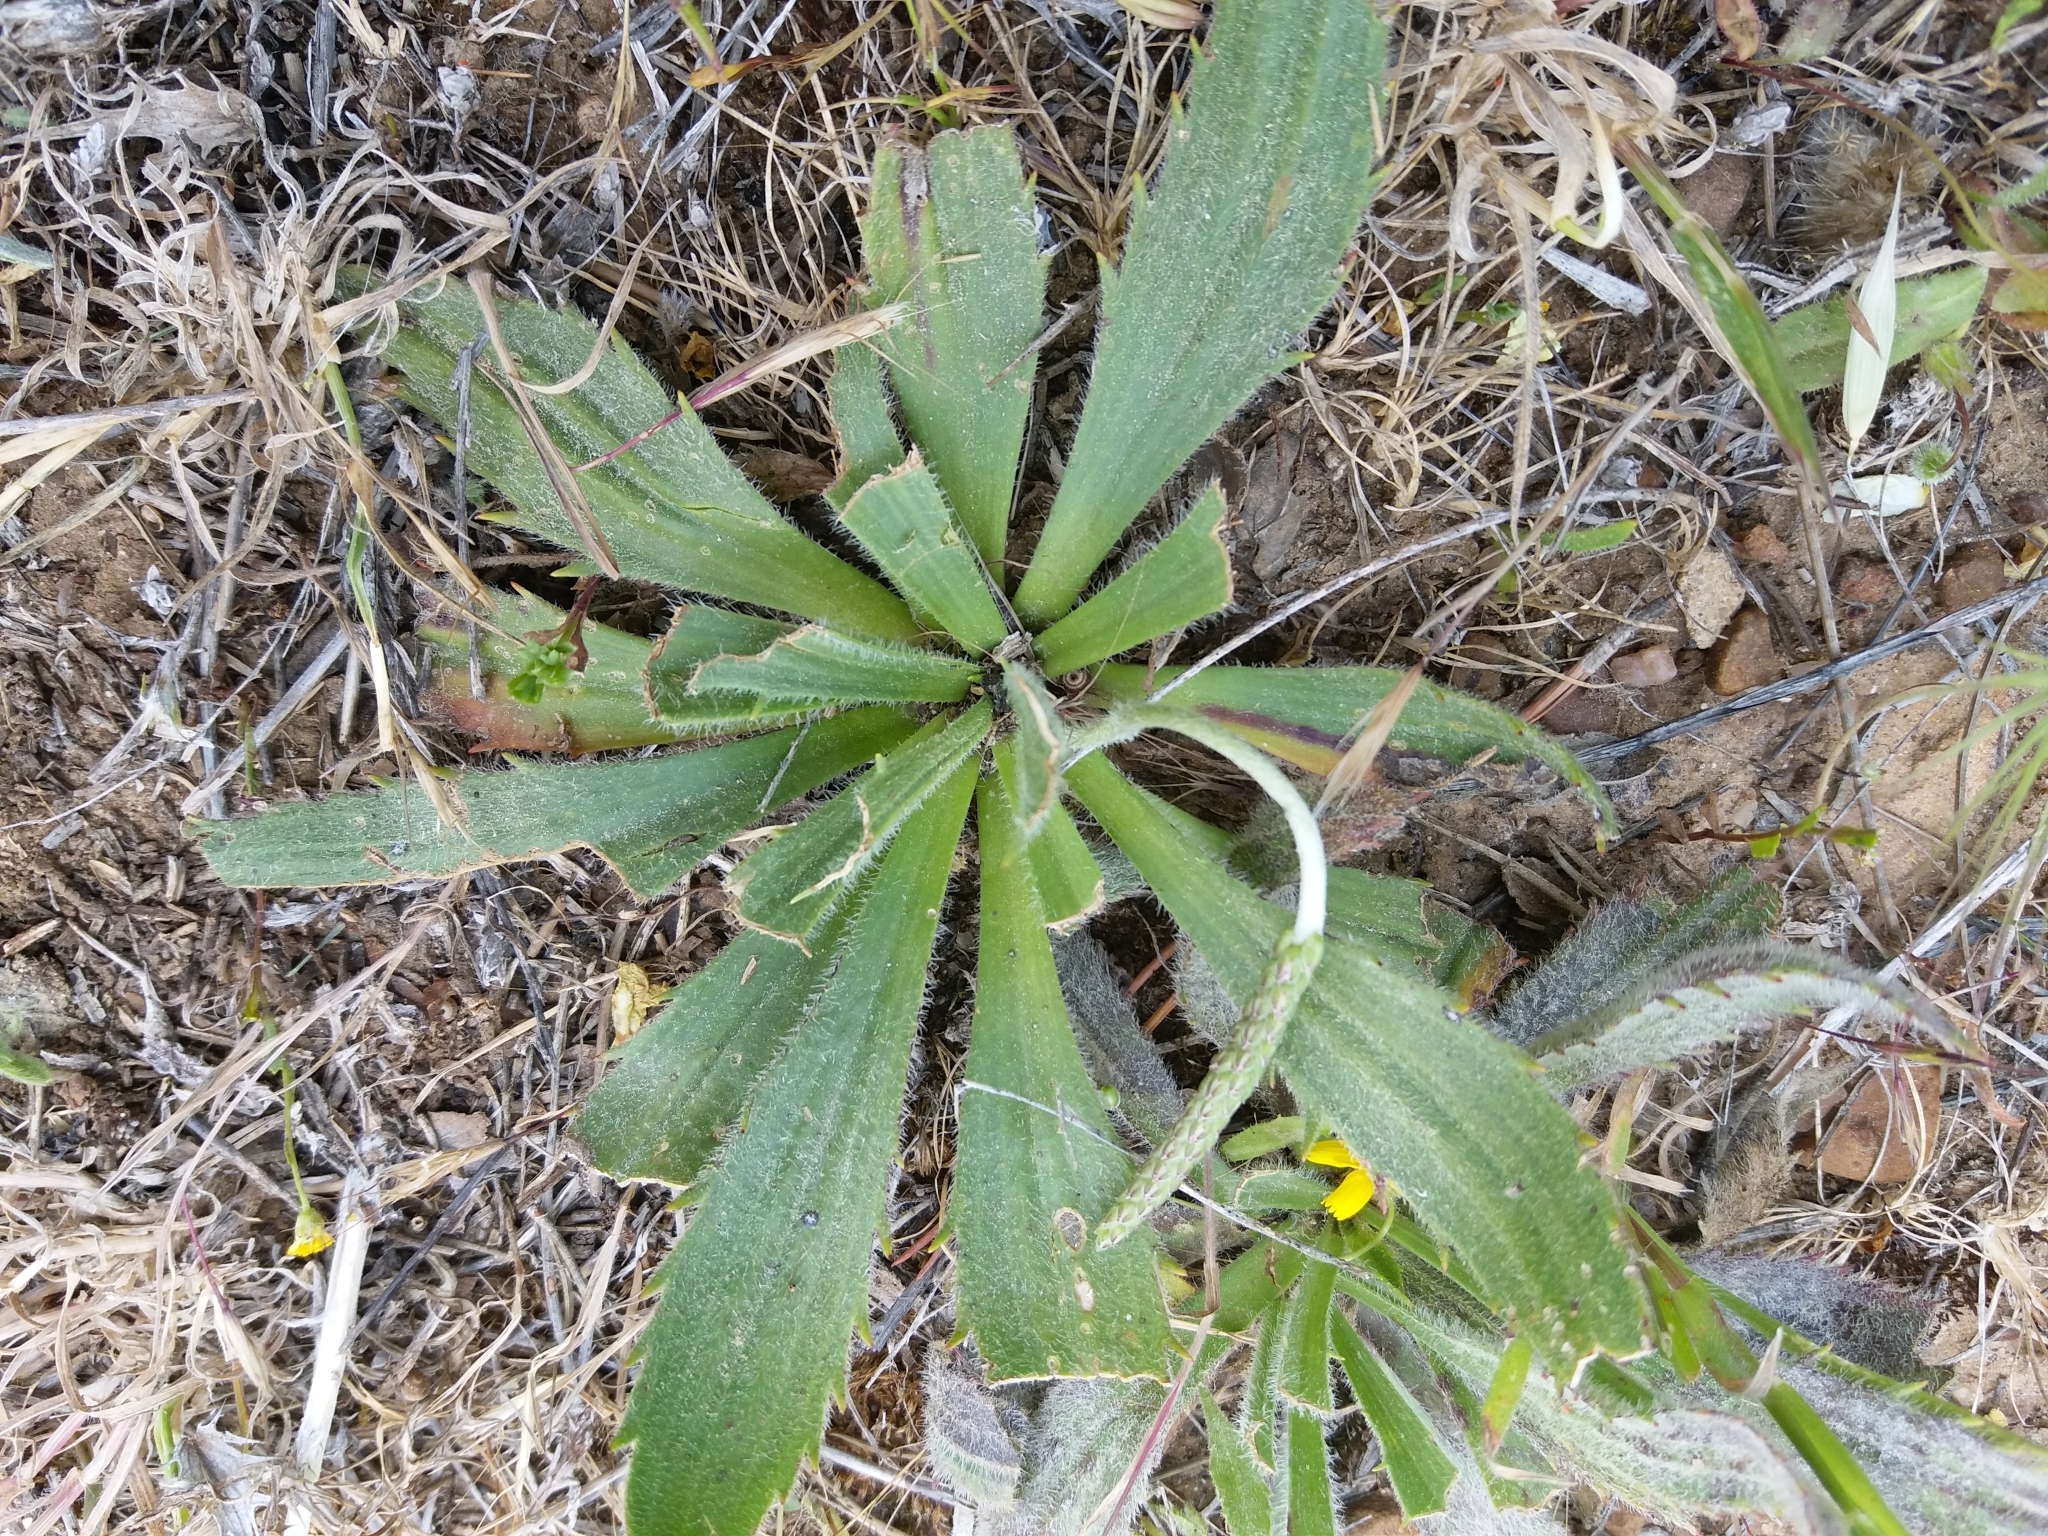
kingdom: Plantae
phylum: Tracheophyta
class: Magnoliopsida
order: Lamiales
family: Plantaginaceae
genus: Plantago
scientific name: Plantago coronopus
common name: Buck's-horn plantain
